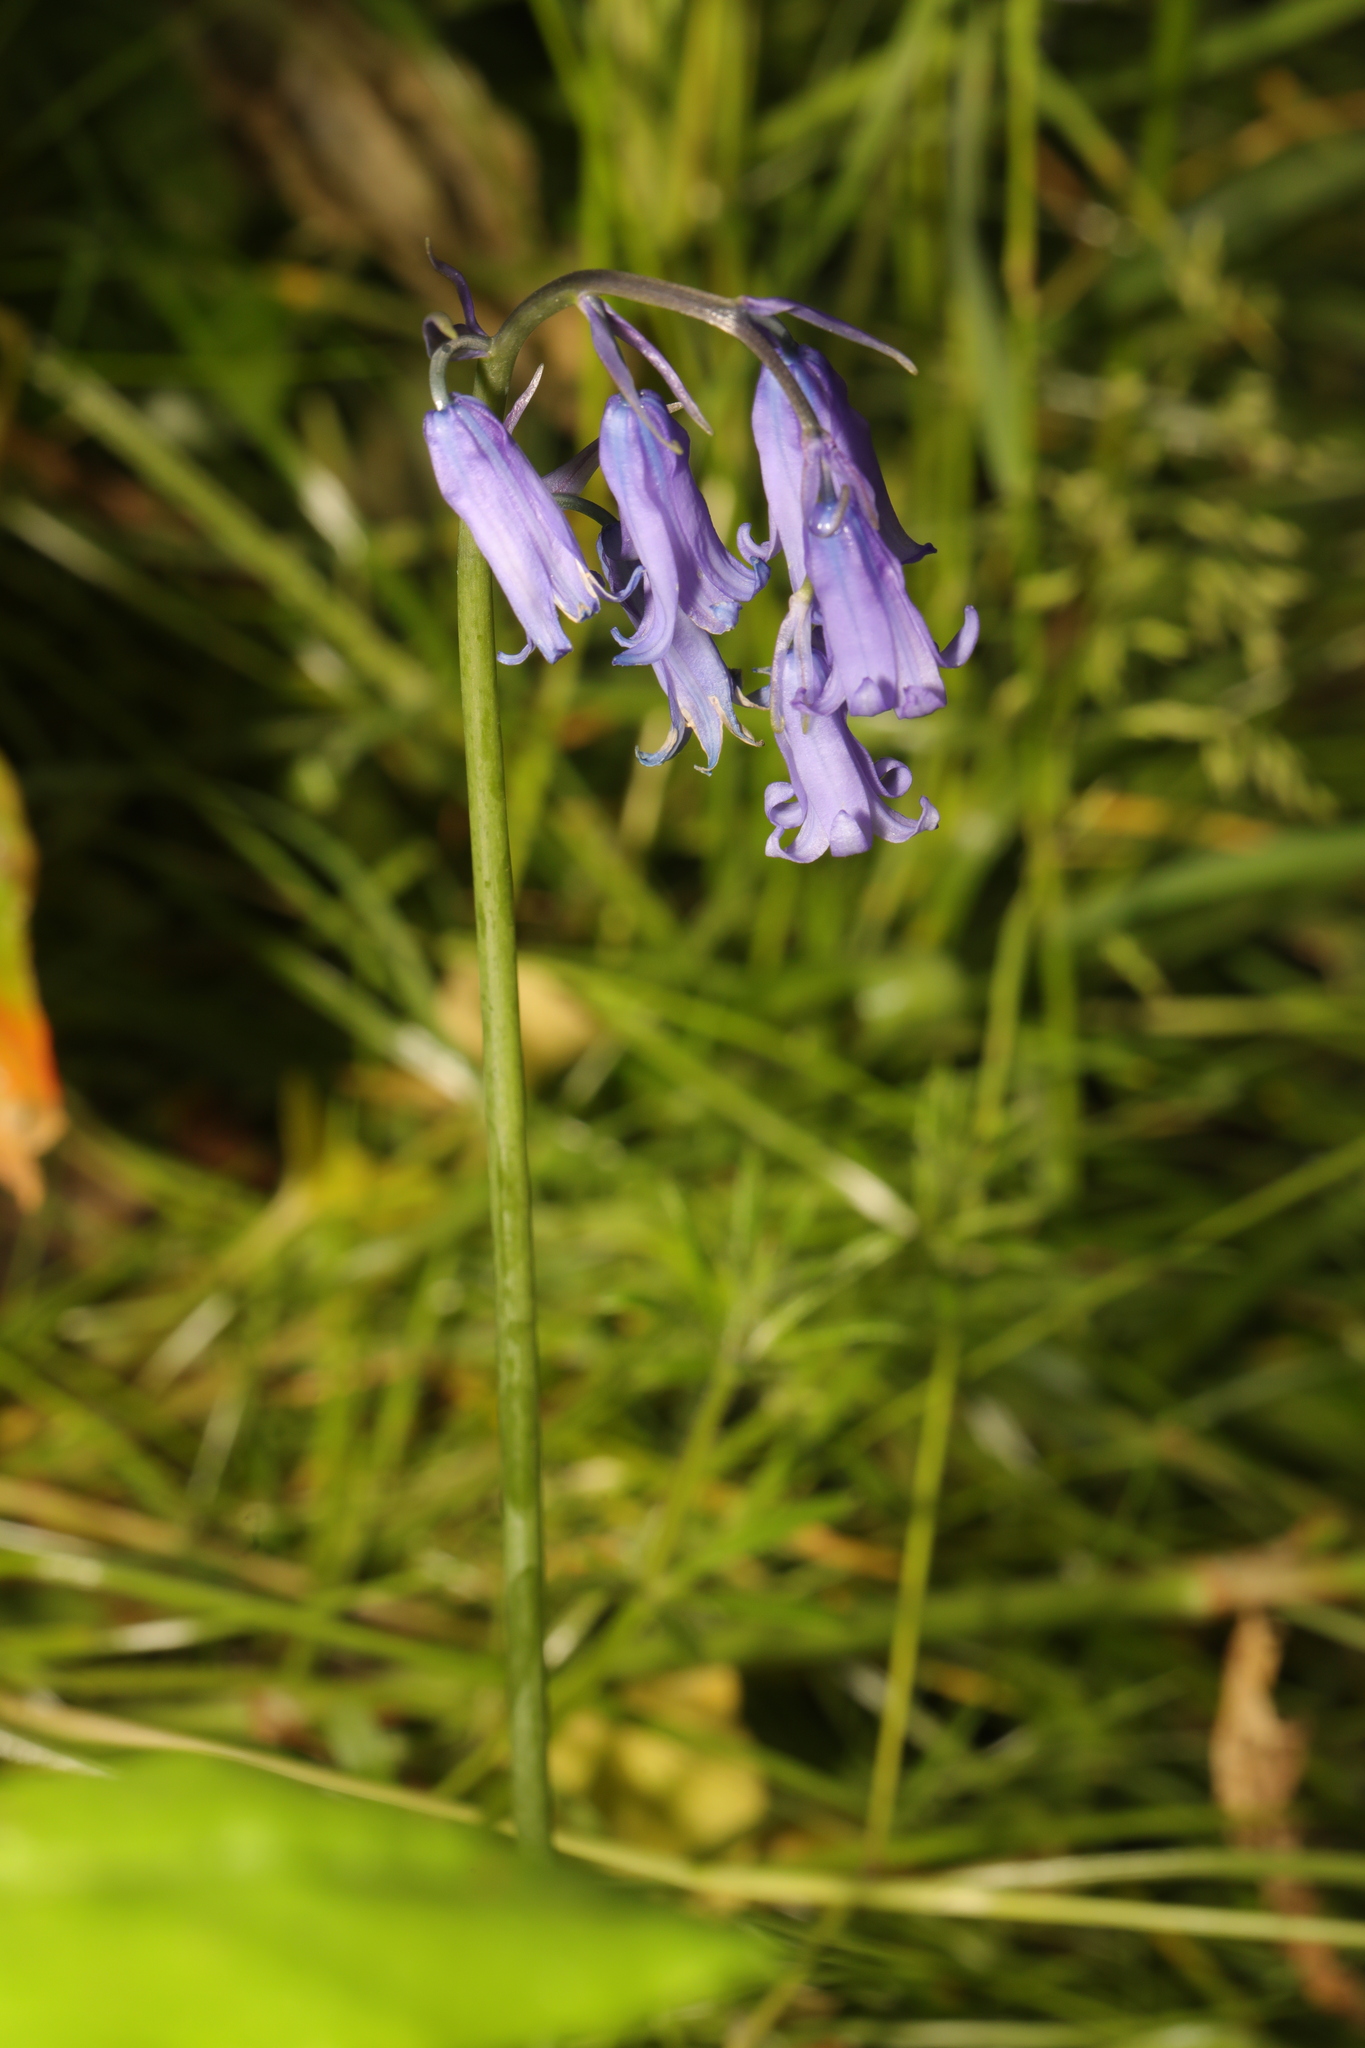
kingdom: Plantae
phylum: Tracheophyta
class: Liliopsida
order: Asparagales
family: Asparagaceae
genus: Hyacinthoides
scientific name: Hyacinthoides non-scripta
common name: Bluebell
